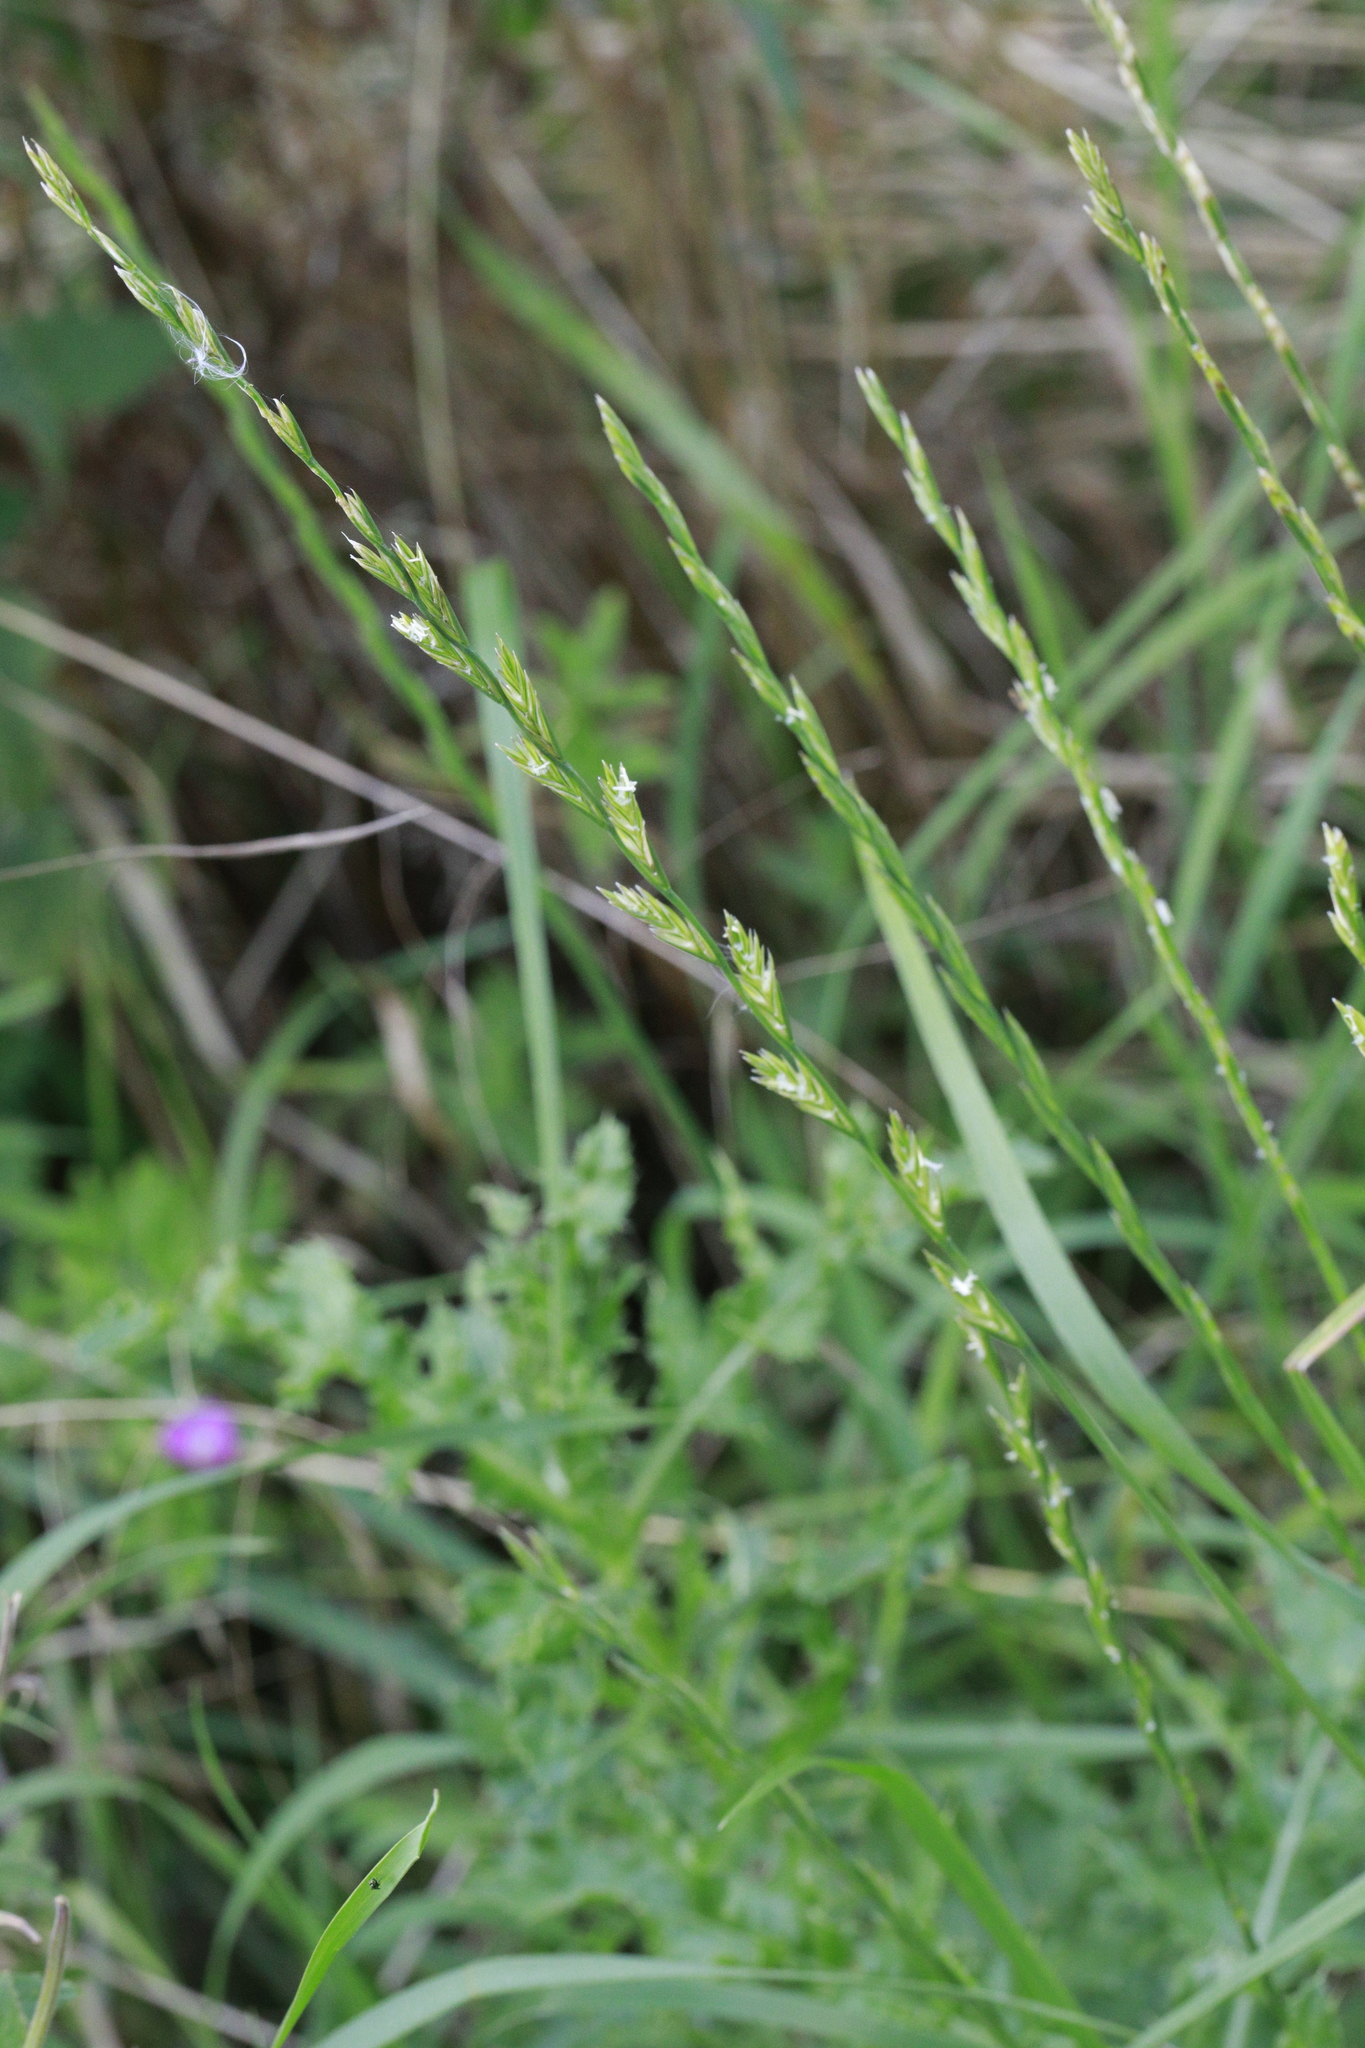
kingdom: Plantae
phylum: Tracheophyta
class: Liliopsida
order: Poales
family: Poaceae
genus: Lolium
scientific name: Lolium perenne
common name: Perennial ryegrass
